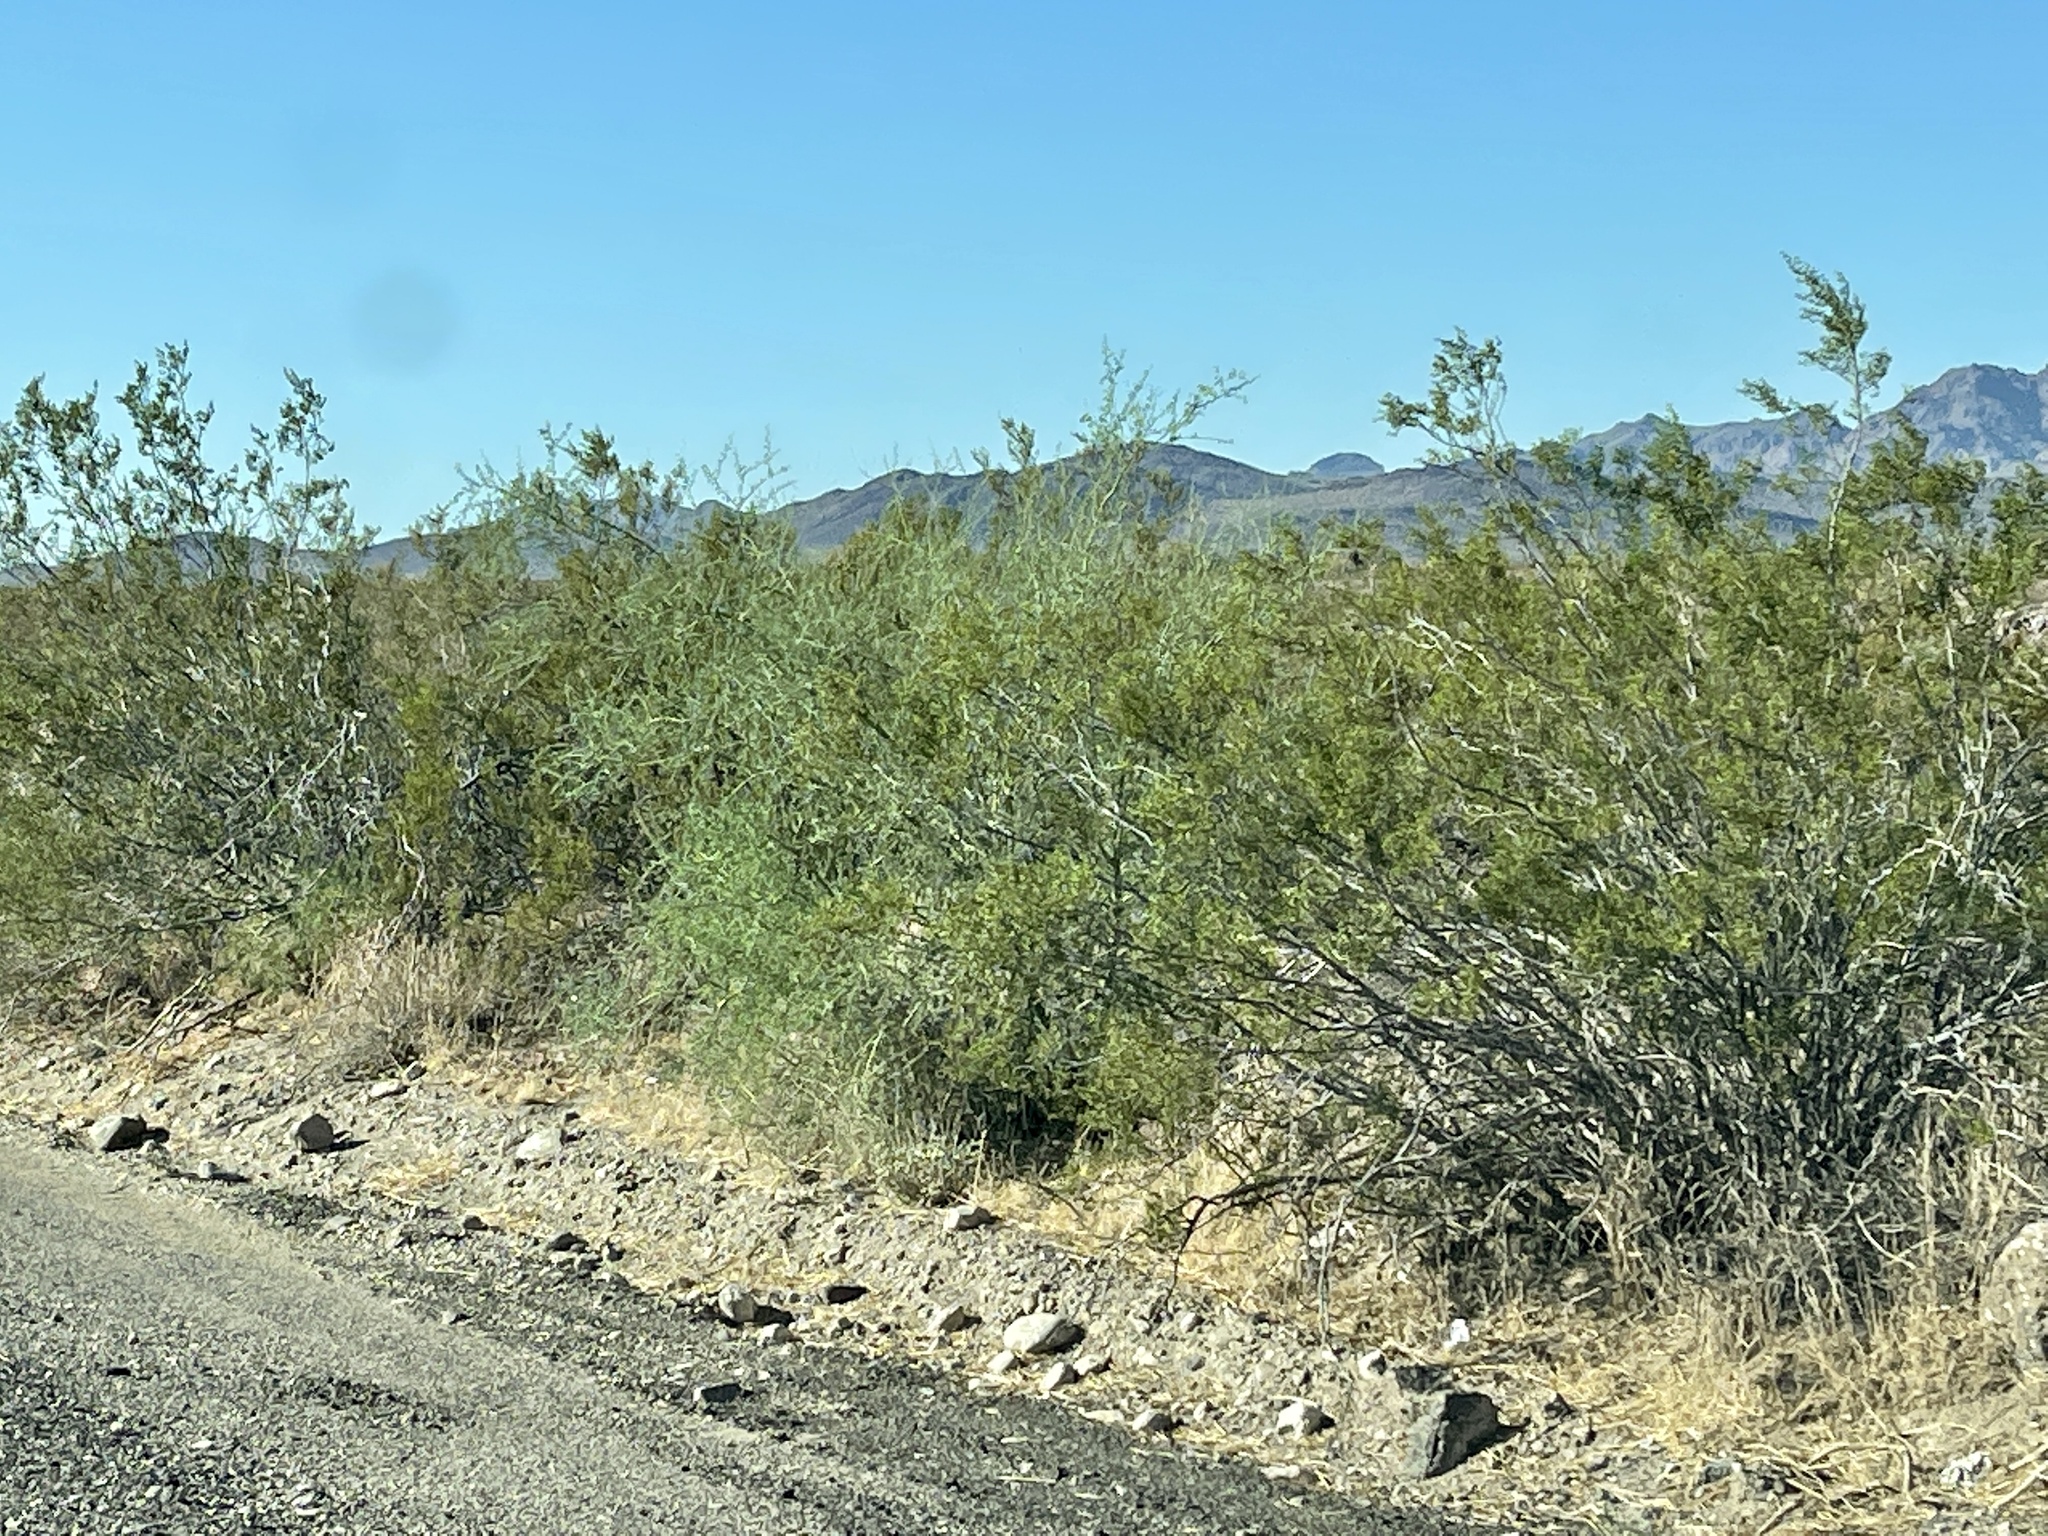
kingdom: Plantae
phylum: Tracheophyta
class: Magnoliopsida
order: Zygophyllales
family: Zygophyllaceae
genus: Larrea
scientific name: Larrea tridentata
